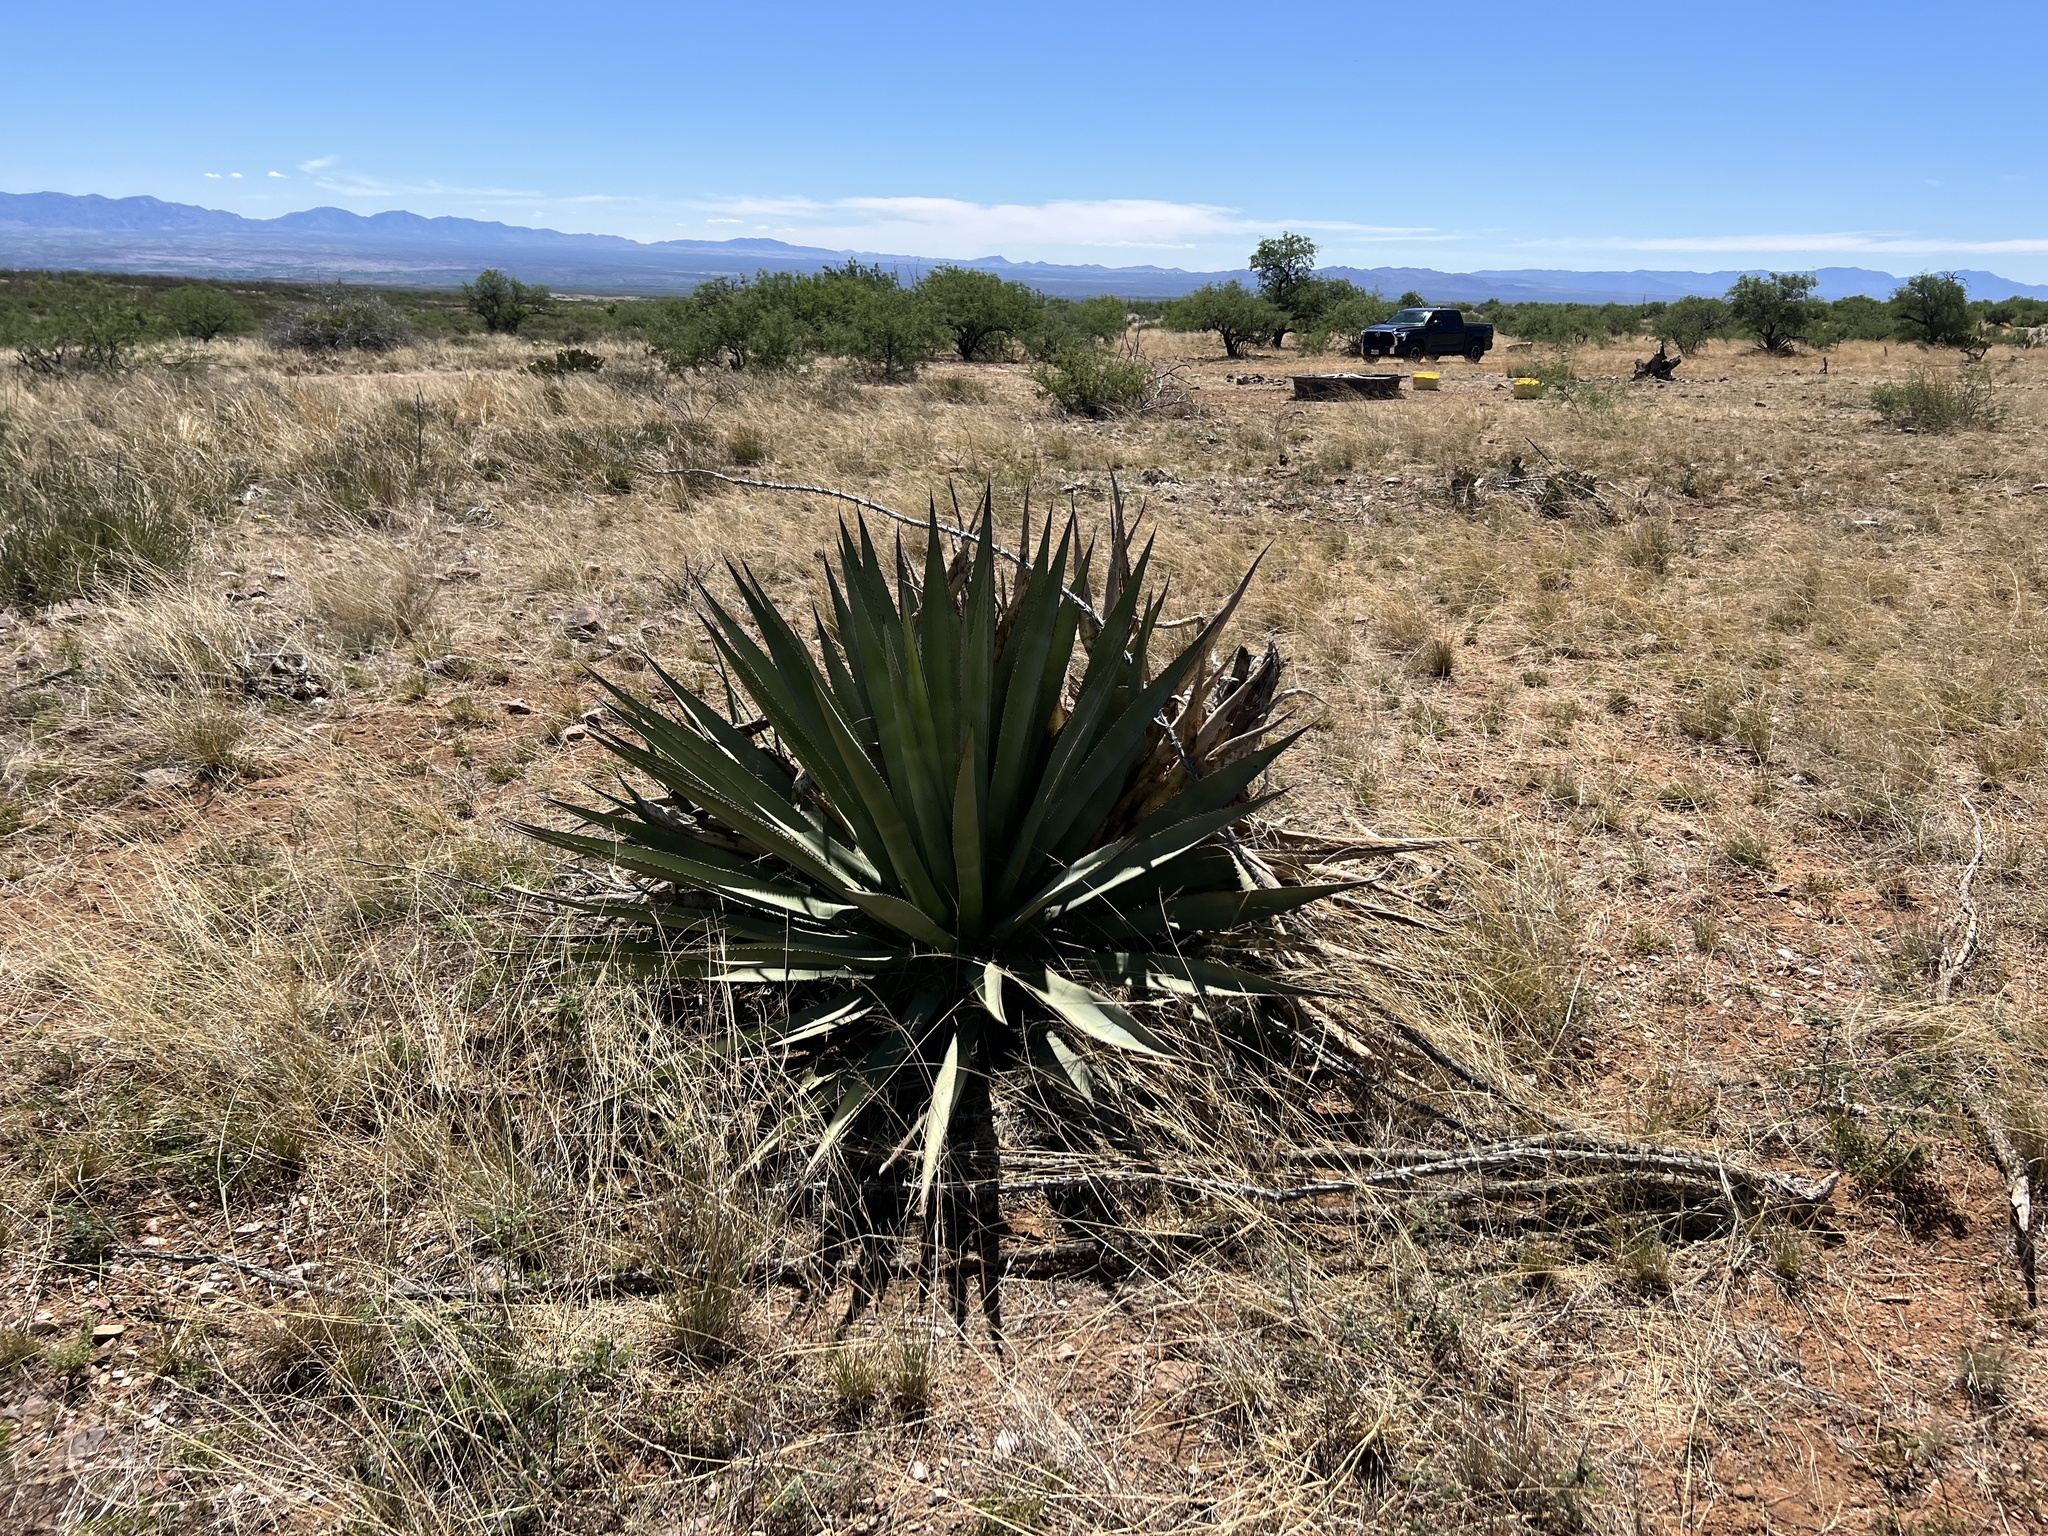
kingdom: Plantae
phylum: Tracheophyta
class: Liliopsida
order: Asparagales
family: Asparagaceae
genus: Agave
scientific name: Agave palmeri
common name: Palmer agave
